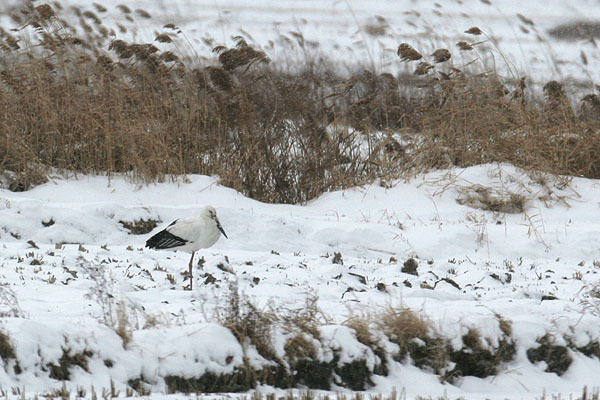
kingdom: Animalia
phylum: Chordata
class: Aves
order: Ciconiiformes
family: Ciconiidae
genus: Ciconia
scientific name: Ciconia boyciana
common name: Oriental stork
